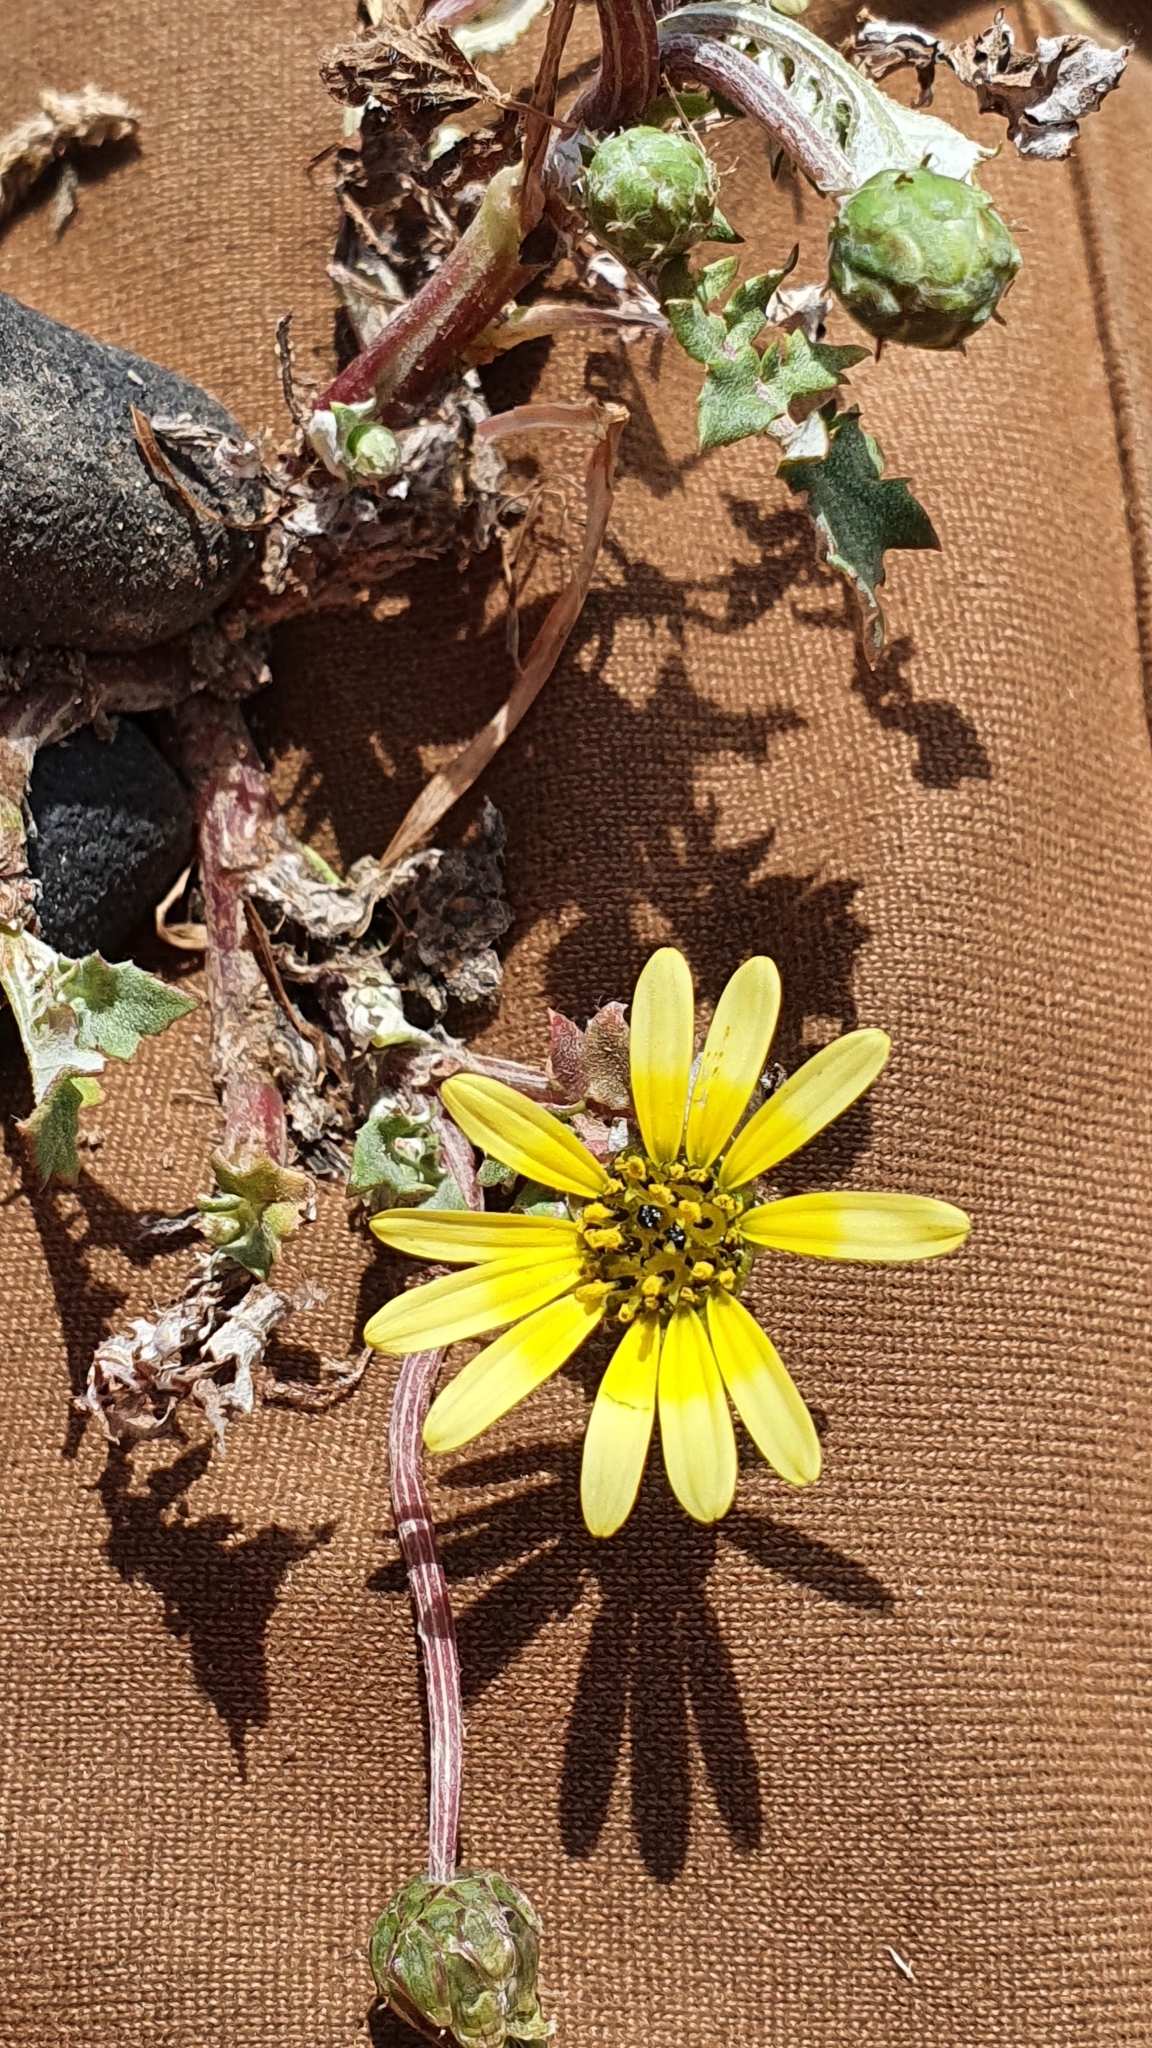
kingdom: Plantae
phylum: Tracheophyta
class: Magnoliopsida
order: Asterales
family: Asteraceae
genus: Arctotheca
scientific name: Arctotheca calendula
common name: Capeweed
